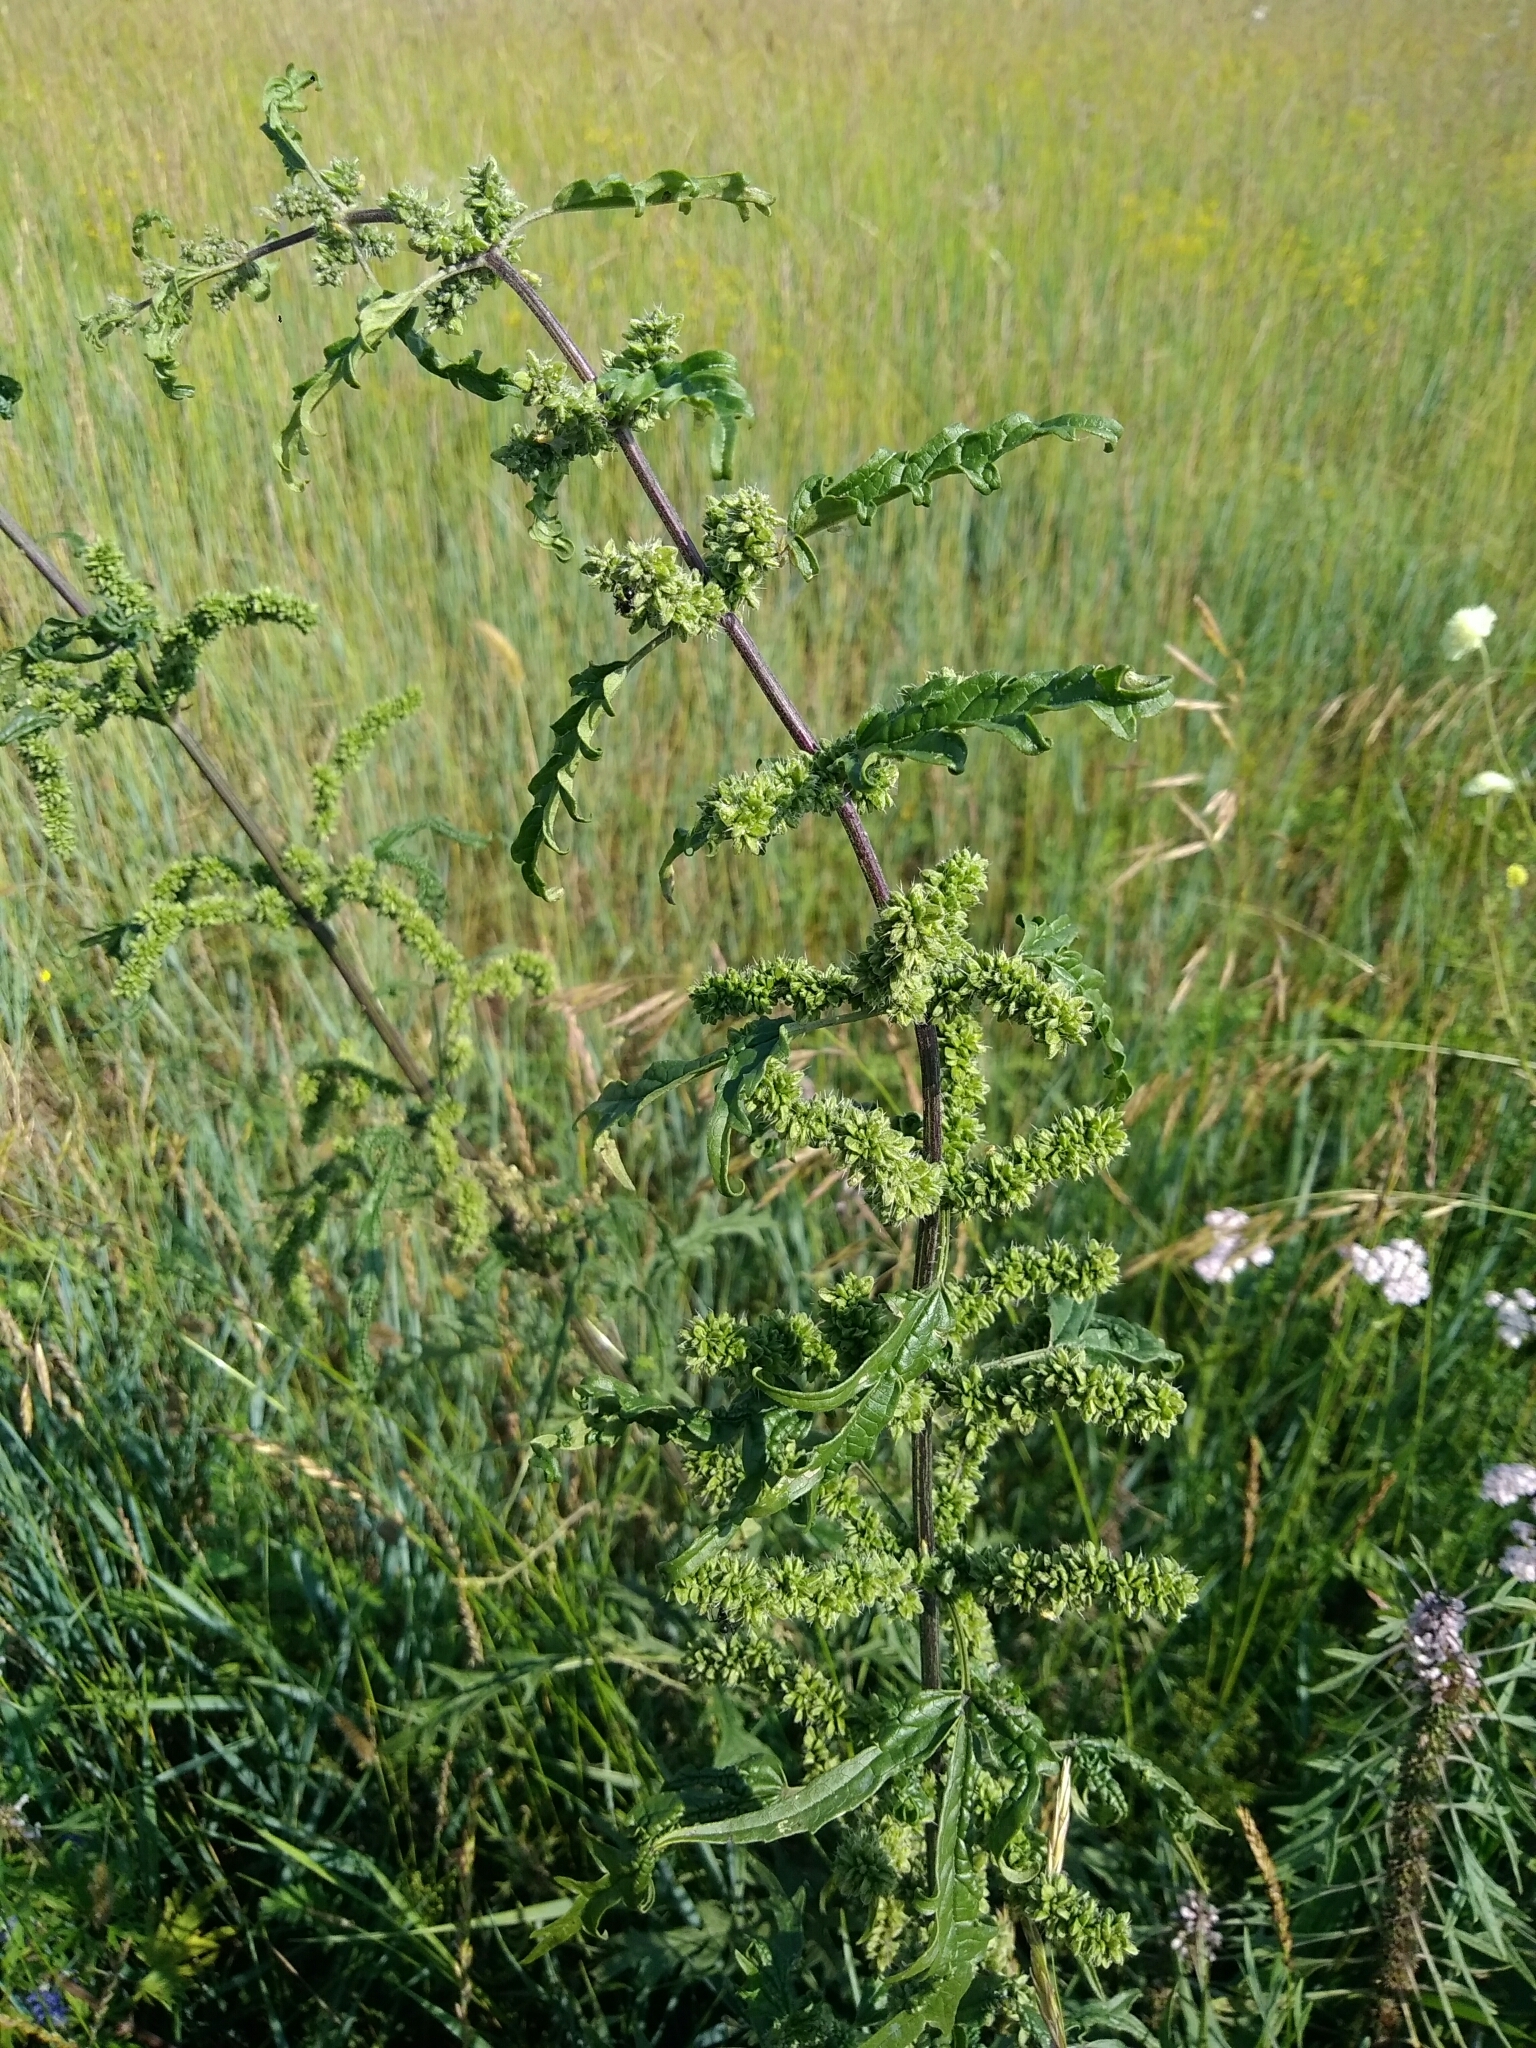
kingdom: Plantae
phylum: Tracheophyta
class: Magnoliopsida
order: Rosales
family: Urticaceae
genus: Urtica
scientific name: Urtica cannabina
